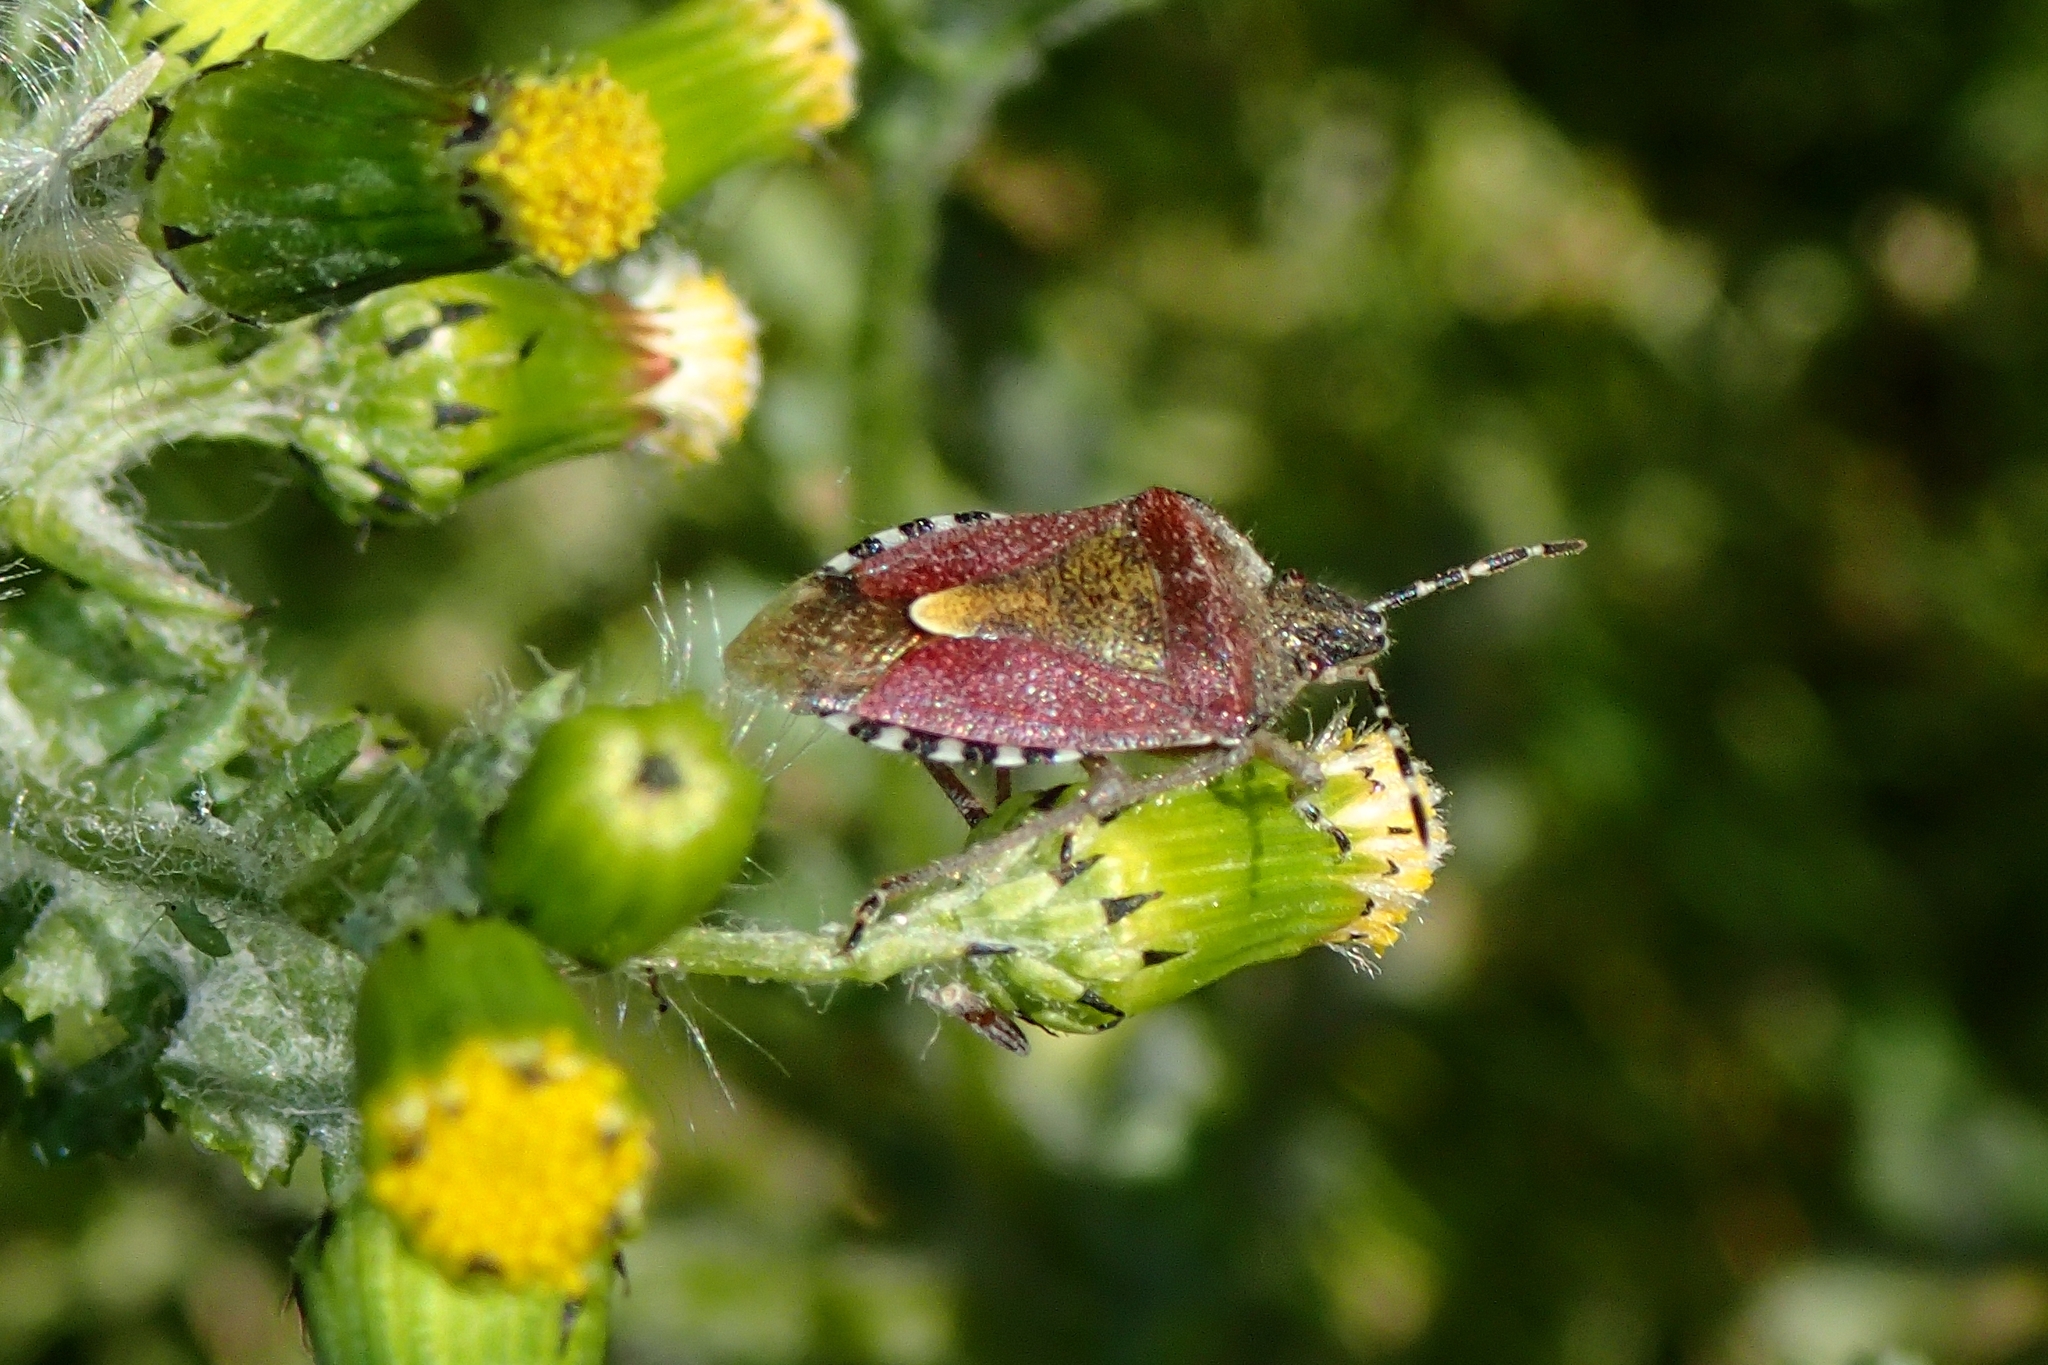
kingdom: Animalia
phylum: Arthropoda
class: Insecta
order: Hemiptera
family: Pentatomidae
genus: Dolycoris
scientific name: Dolycoris baccarum
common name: Sloe bug
